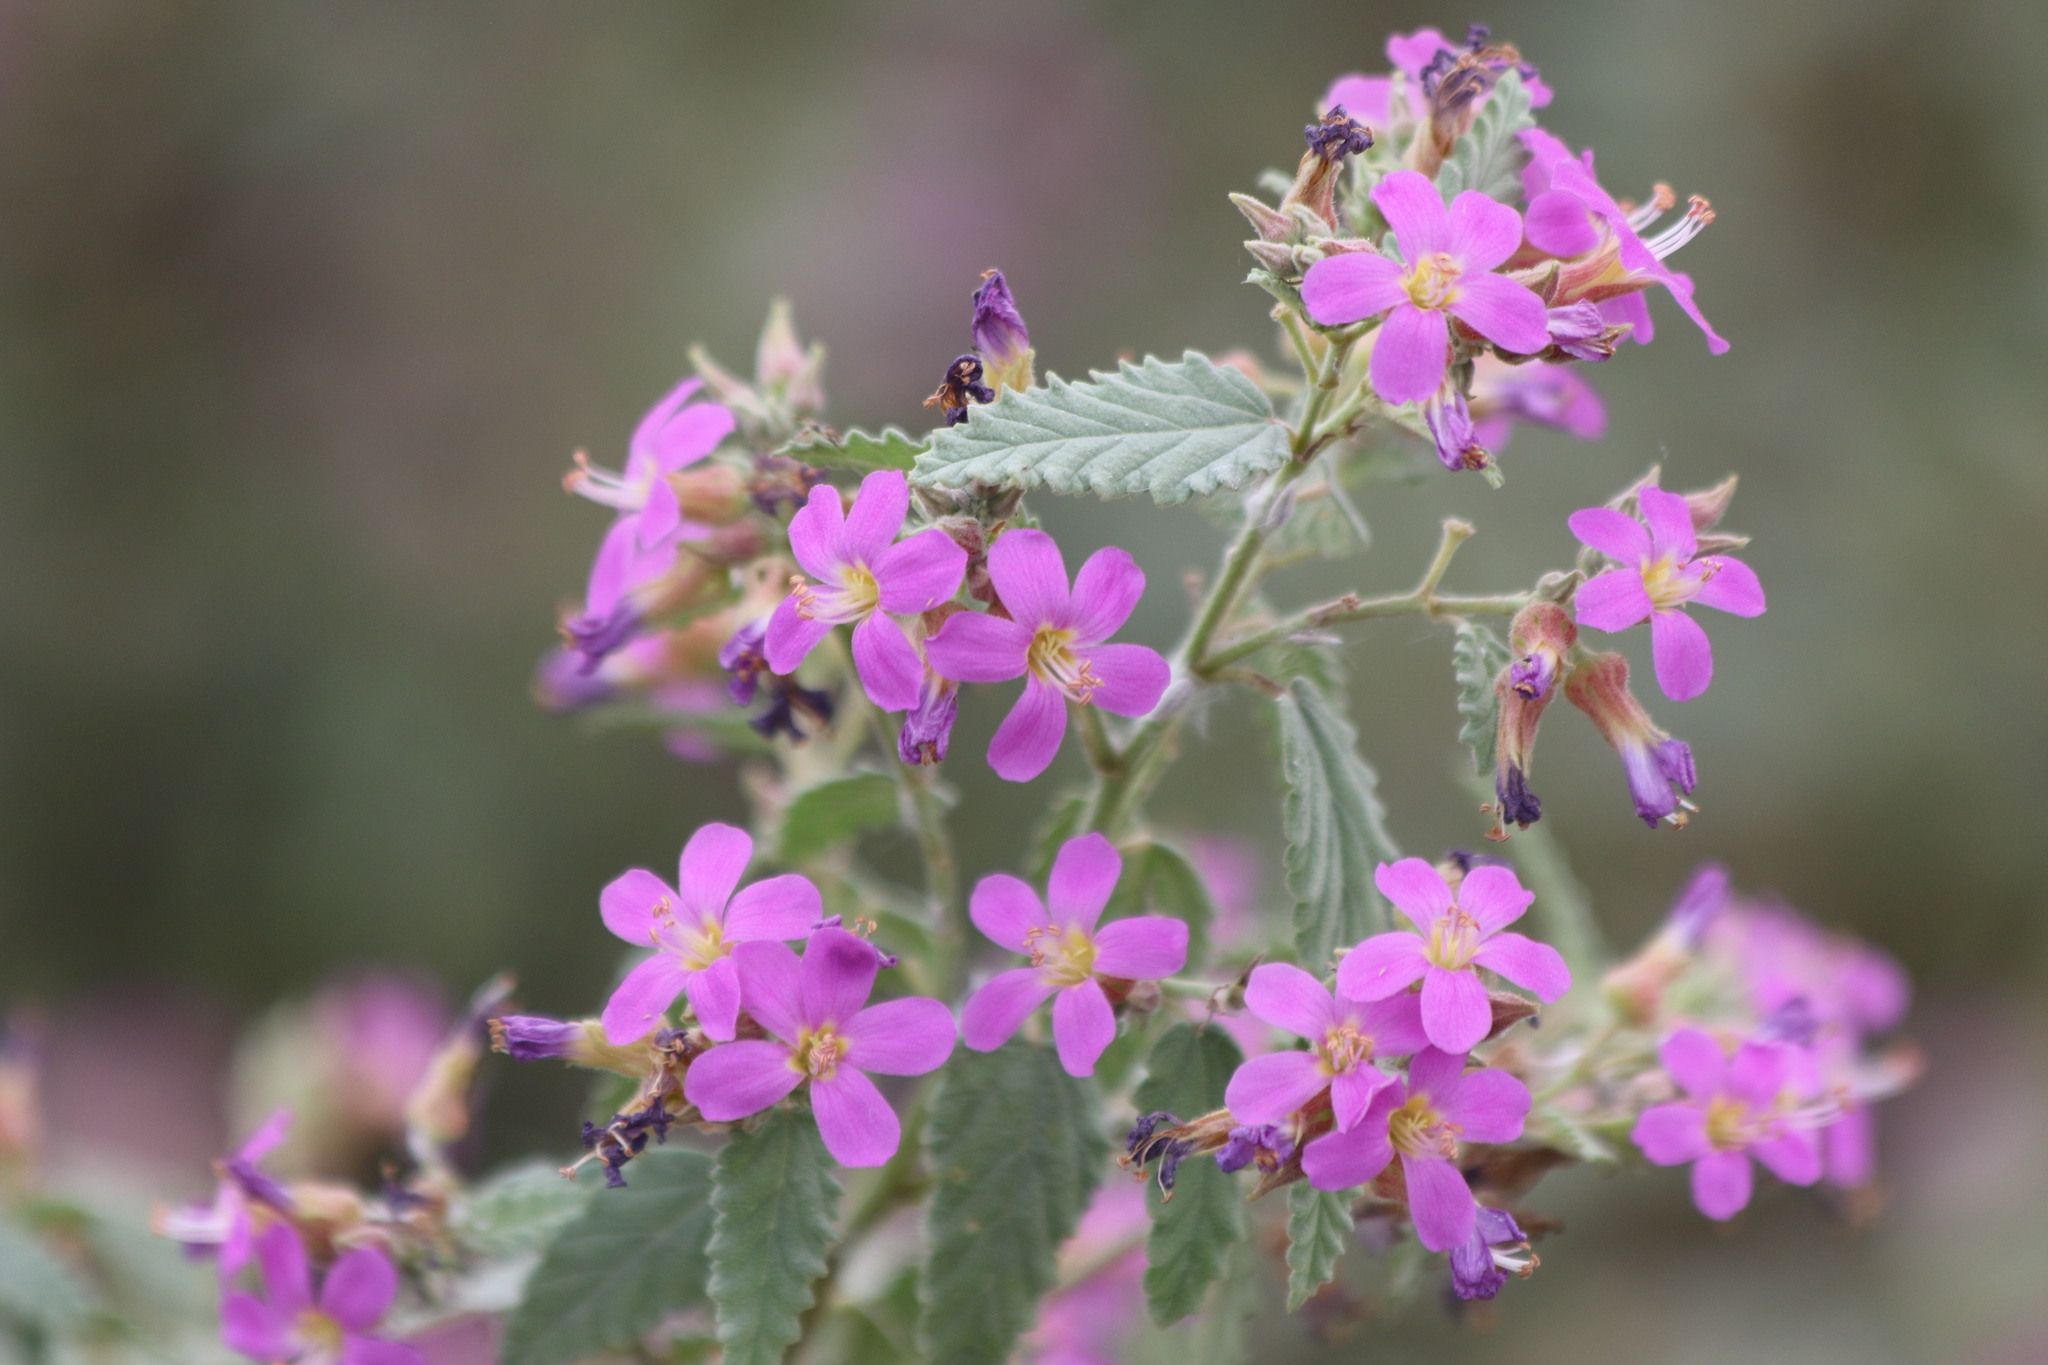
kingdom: Plantae
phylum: Tracheophyta
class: Magnoliopsida
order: Malvales
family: Malvaceae
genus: Melochia
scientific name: Melochia tomentosa
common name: Black torch
